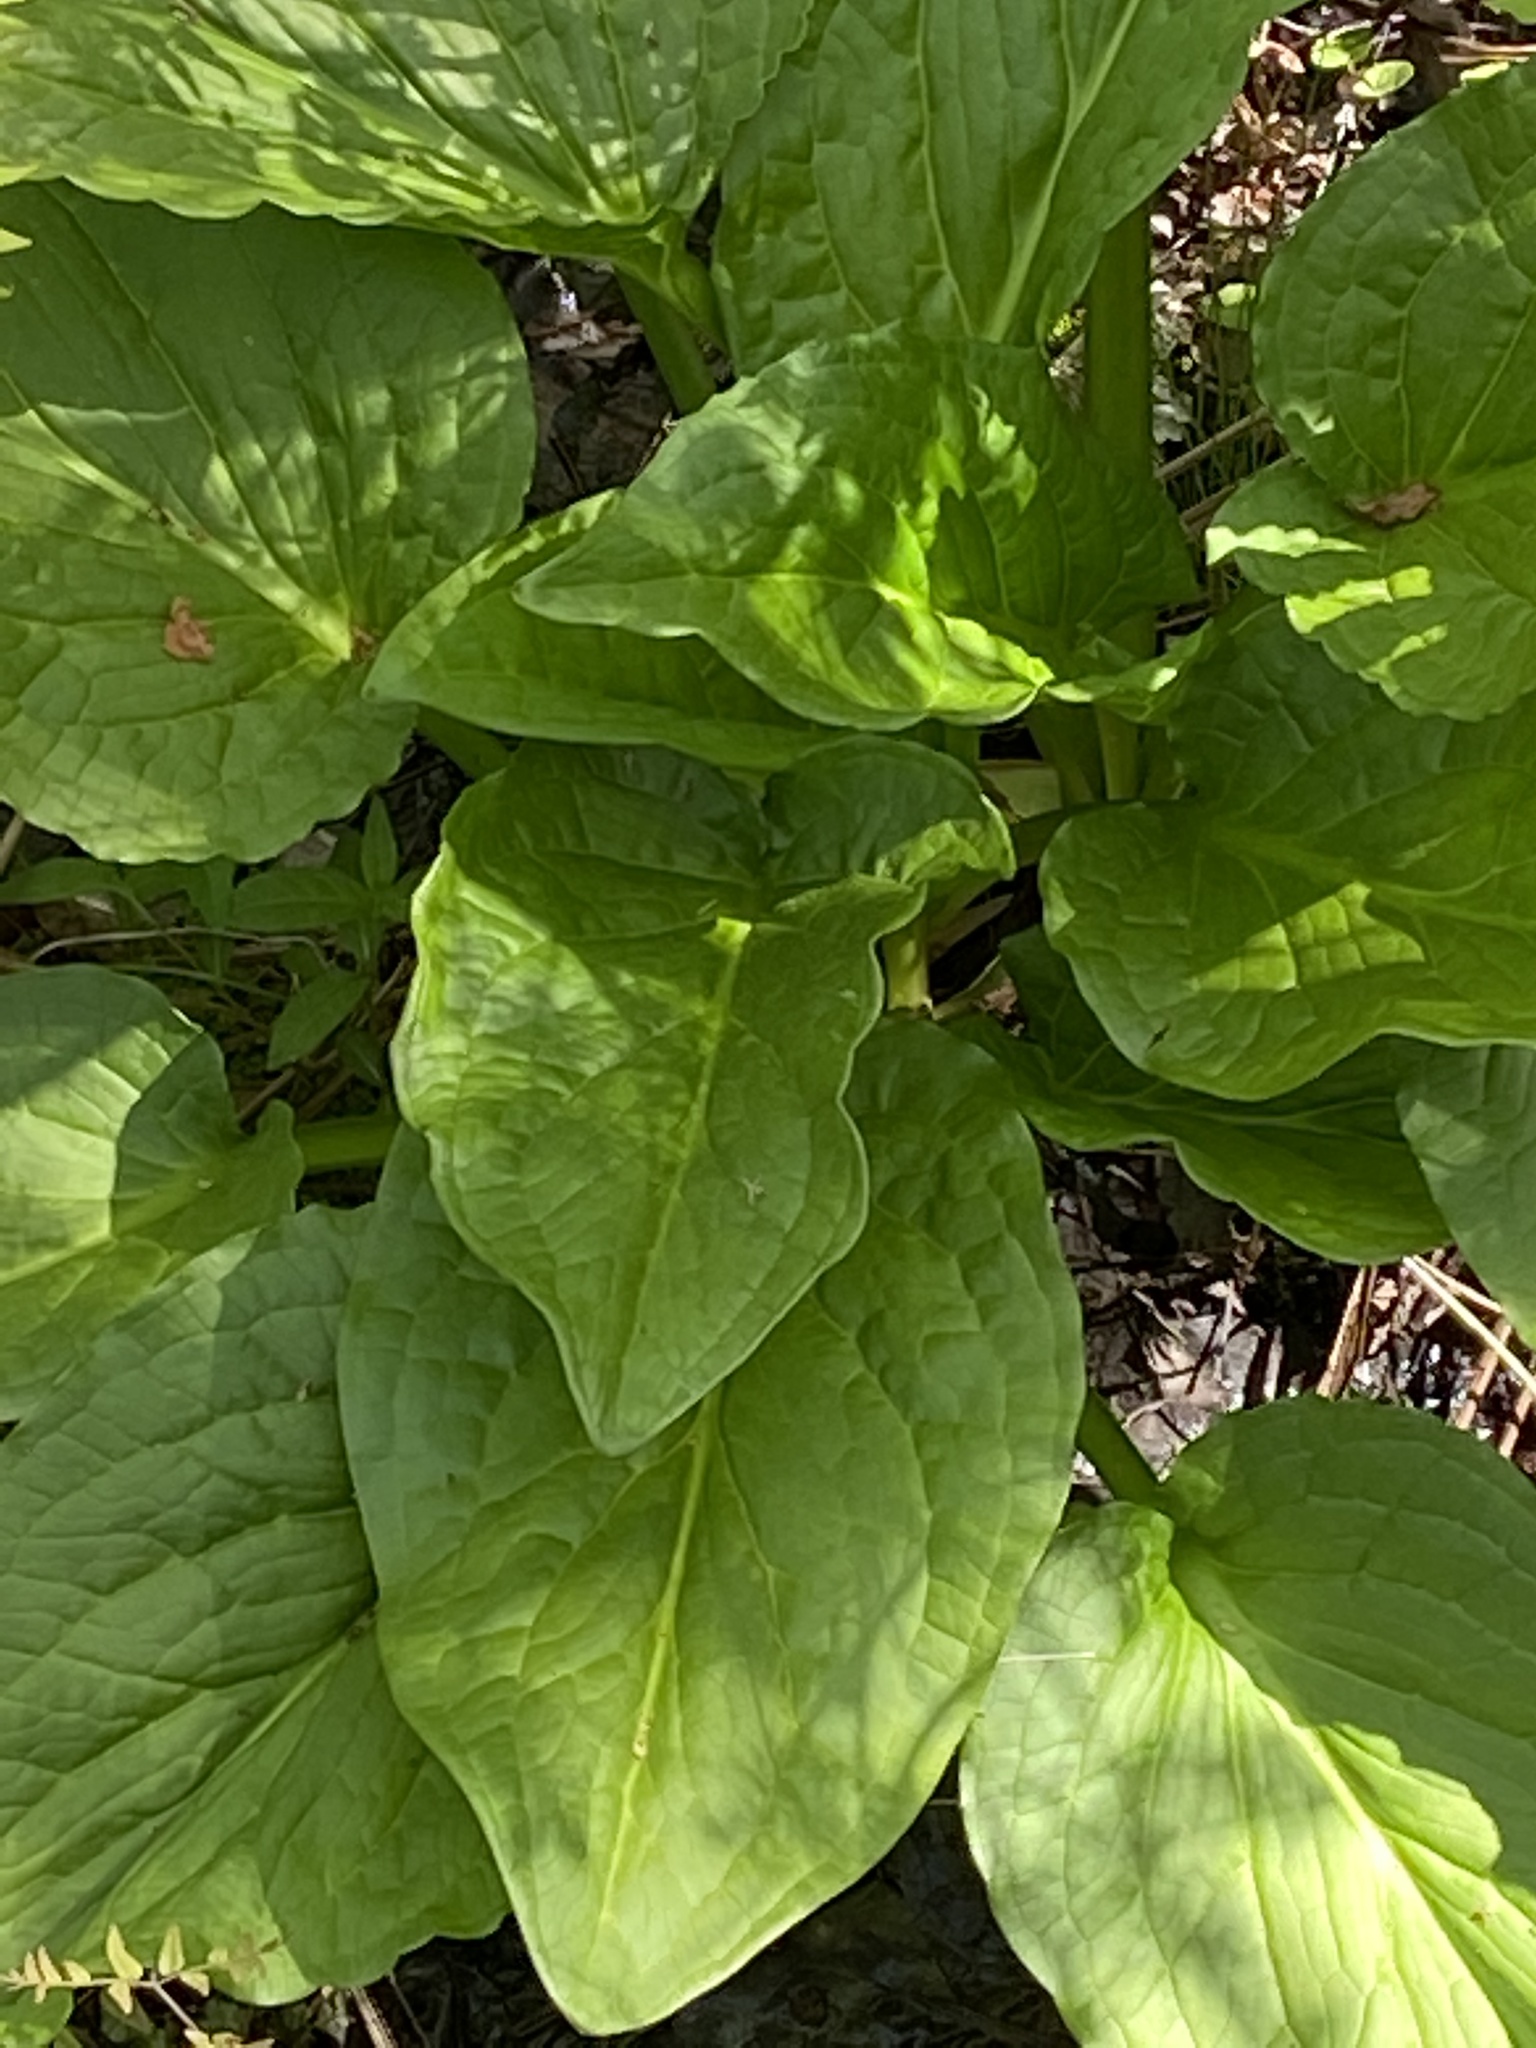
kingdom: Plantae
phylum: Tracheophyta
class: Liliopsida
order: Alismatales
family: Araceae
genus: Symplocarpus
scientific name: Symplocarpus foetidus
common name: Eastern skunk cabbage
